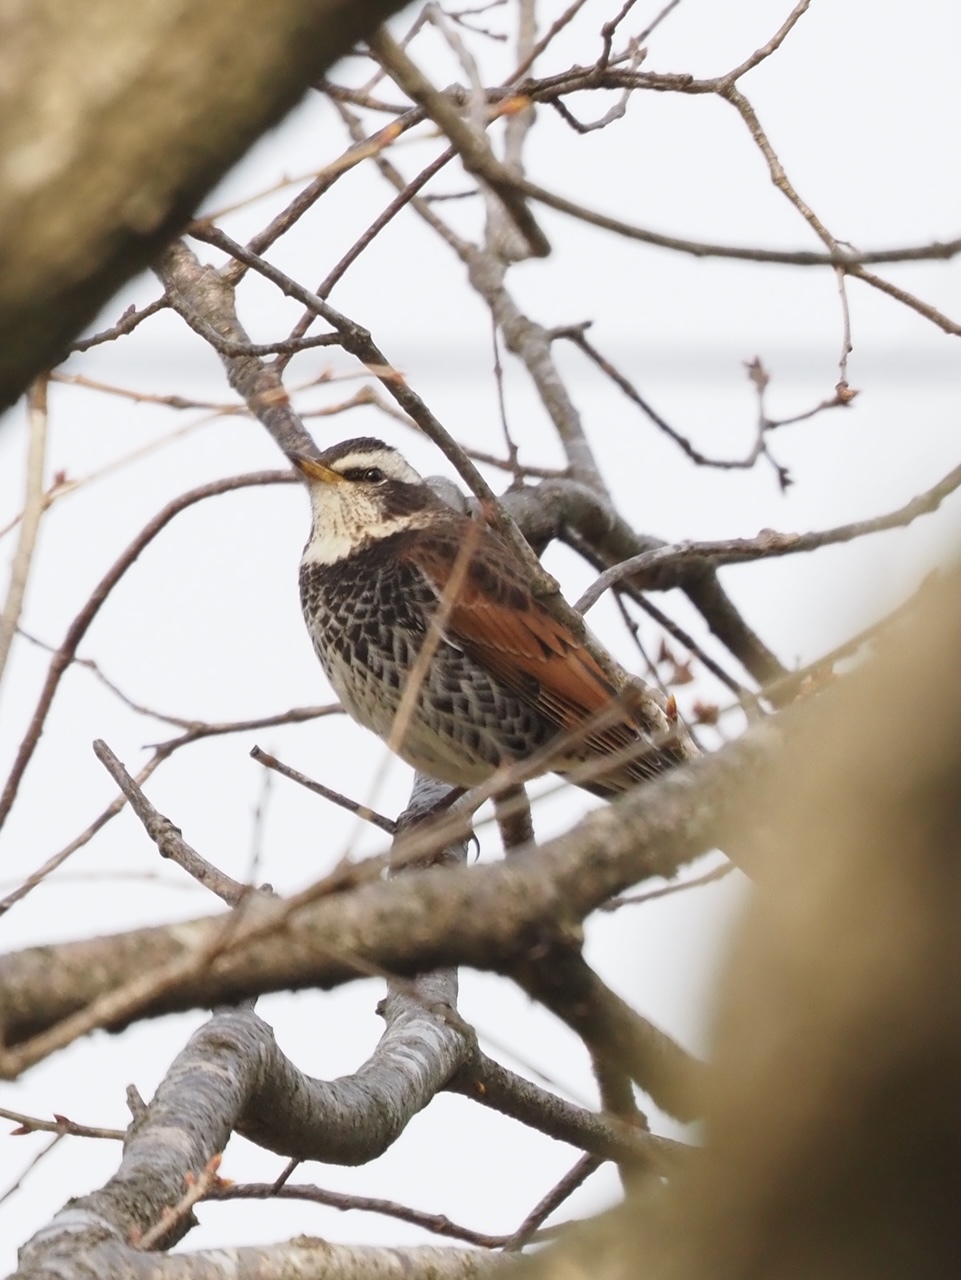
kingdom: Animalia
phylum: Chordata
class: Aves
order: Passeriformes
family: Turdidae
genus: Turdus
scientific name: Turdus eunomus
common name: Dusky thrush
